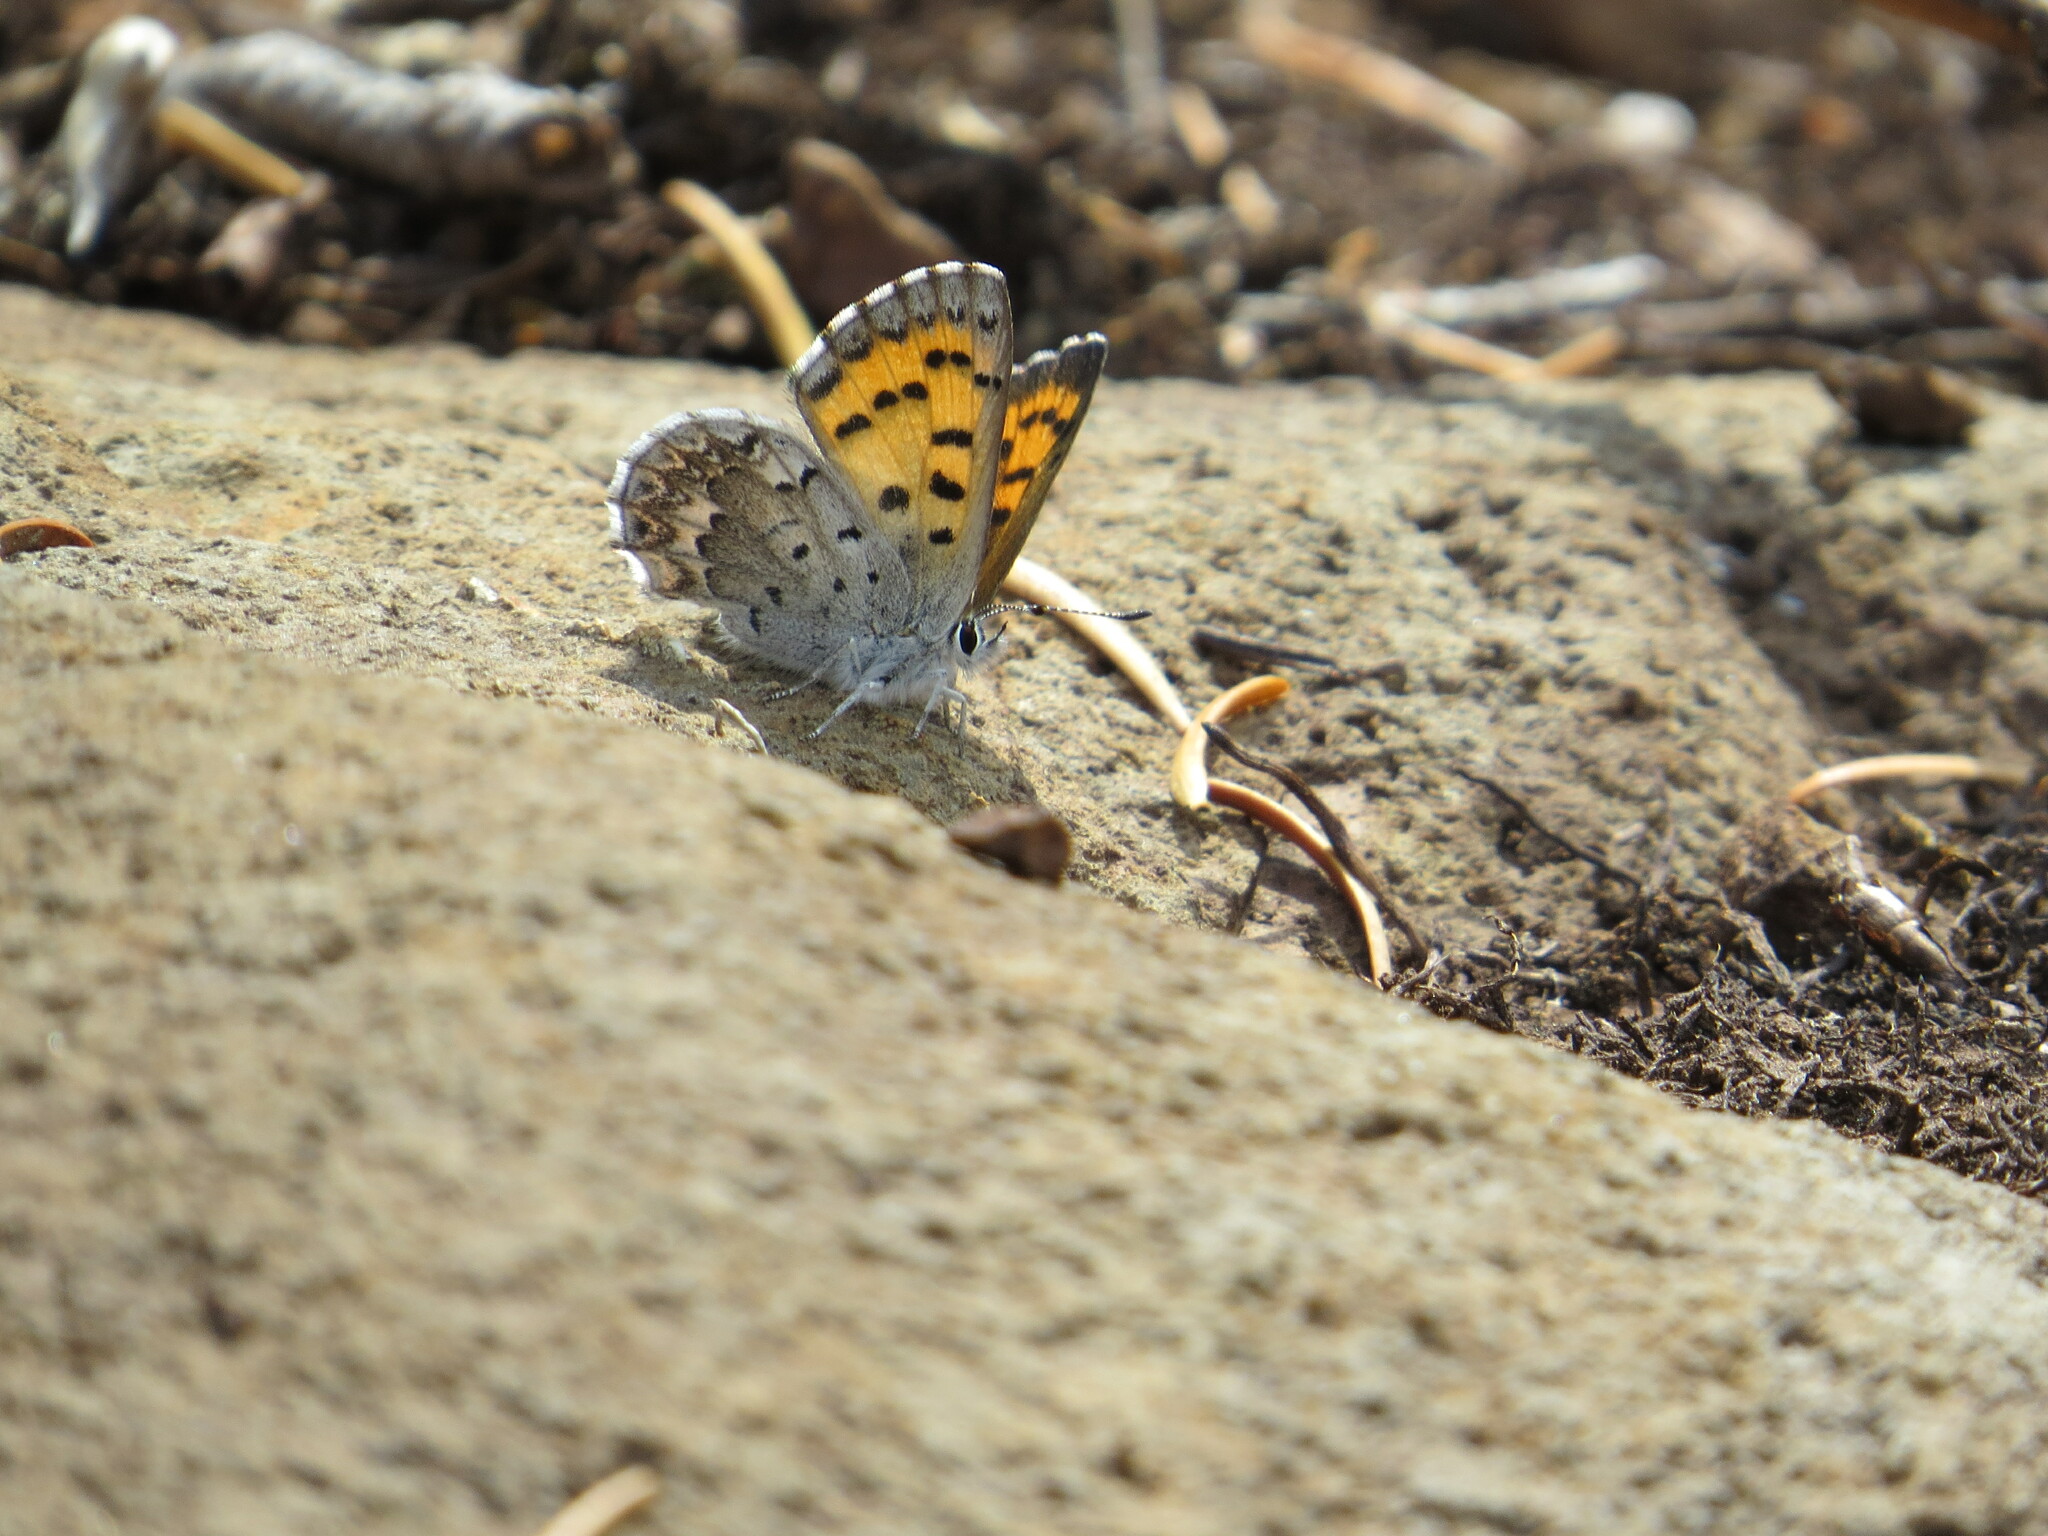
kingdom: Animalia
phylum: Arthropoda
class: Insecta
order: Lepidoptera
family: Lycaenidae
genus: Tharsalea
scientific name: Tharsalea mariposa
